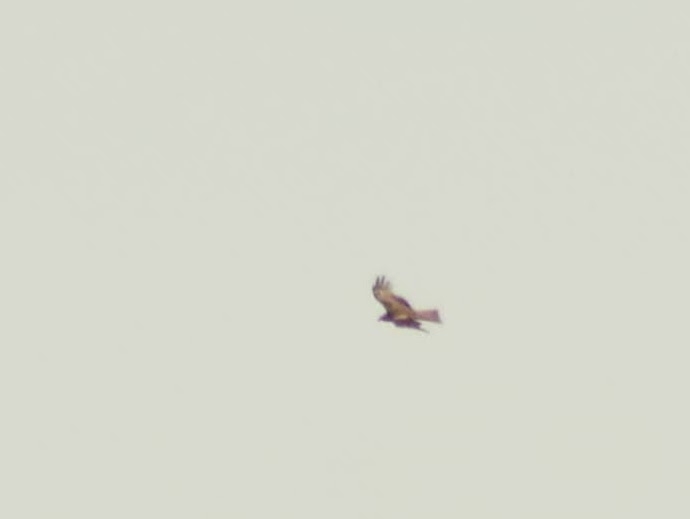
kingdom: Animalia
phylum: Chordata
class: Aves
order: Accipitriformes
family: Accipitridae
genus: Milvus
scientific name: Milvus migrans
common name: Black kite
